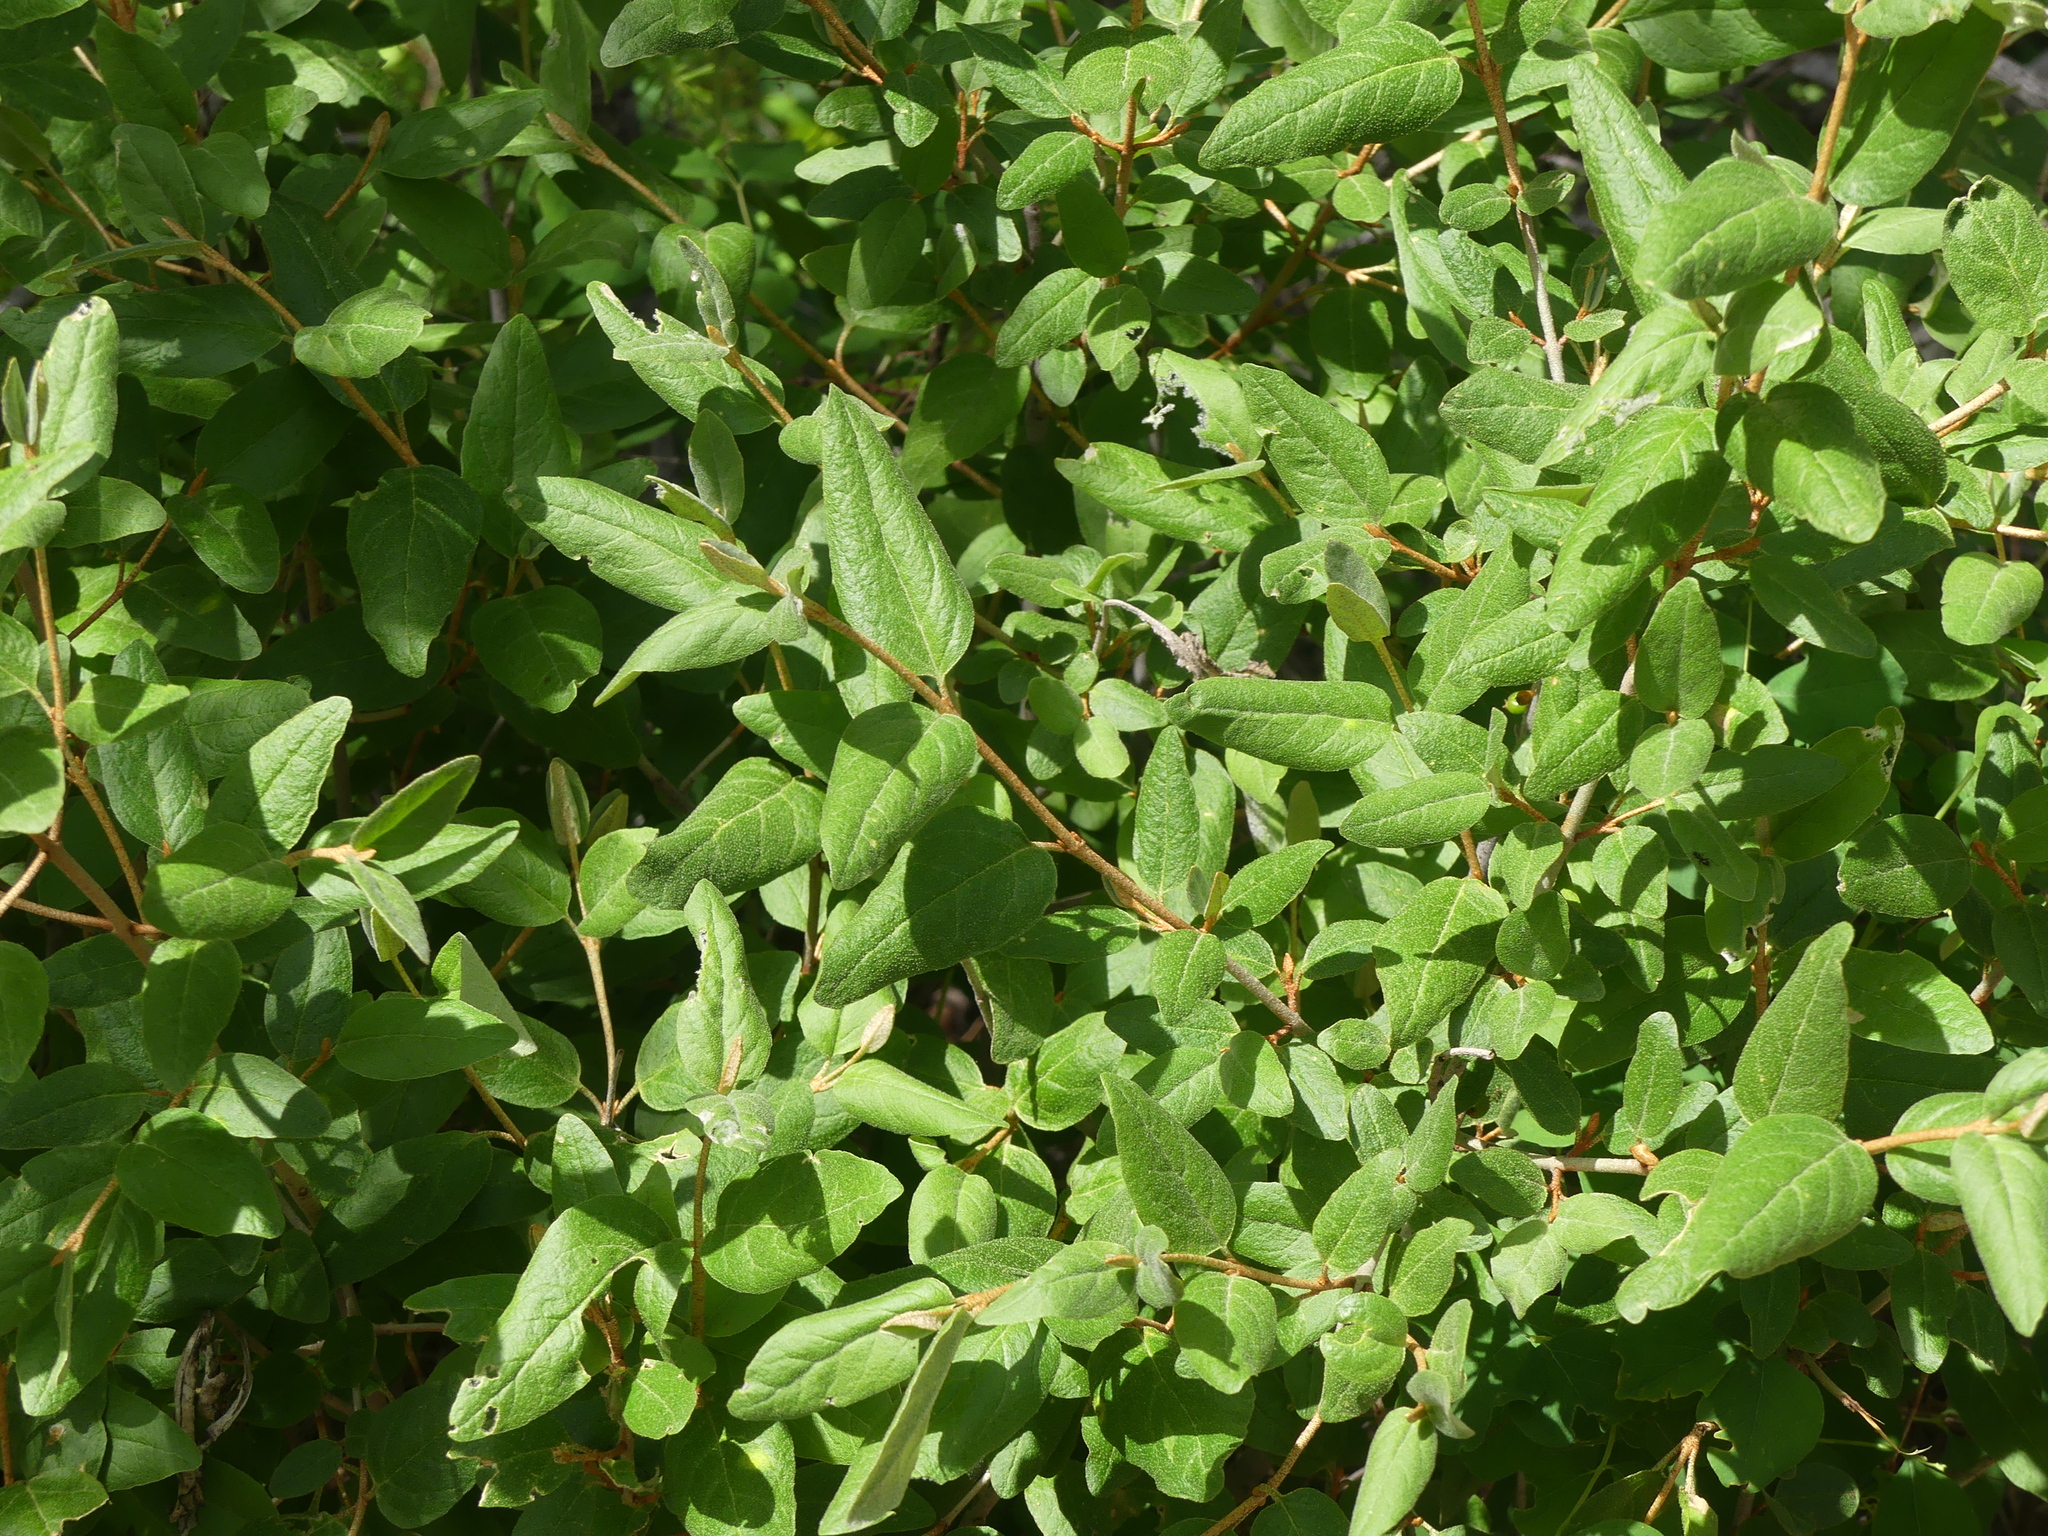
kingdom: Plantae
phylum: Tracheophyta
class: Magnoliopsida
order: Rosales
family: Elaeagnaceae
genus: Shepherdia
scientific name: Shepherdia canadensis
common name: Soapberry
